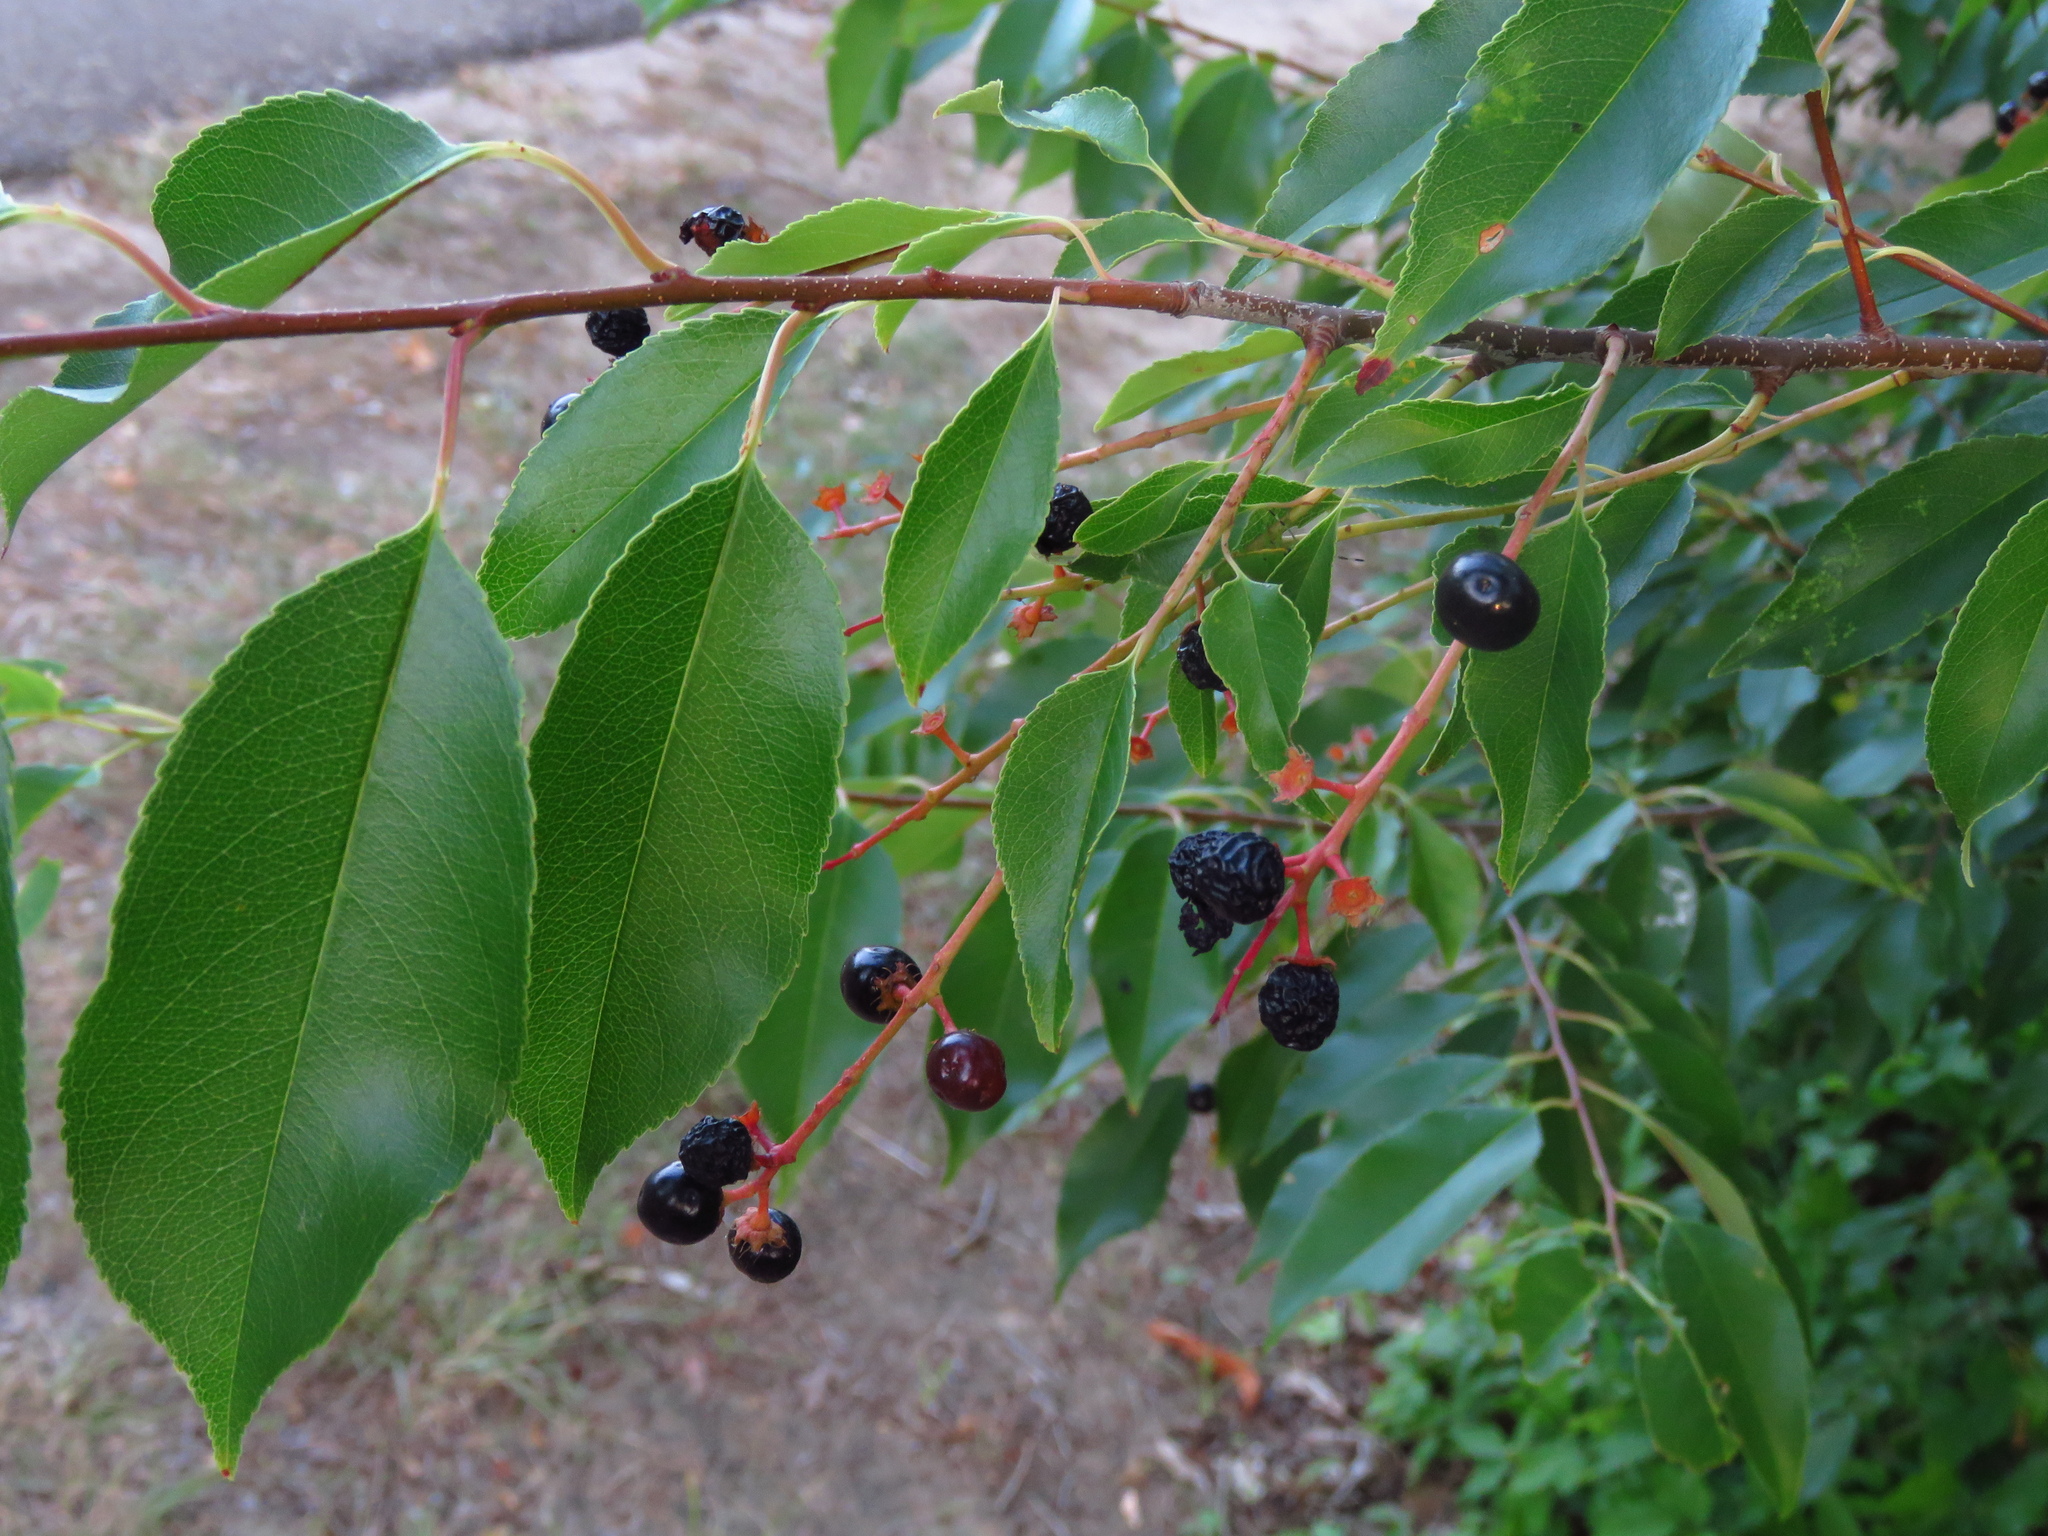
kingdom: Plantae
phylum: Tracheophyta
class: Magnoliopsida
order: Rosales
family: Rosaceae
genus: Prunus
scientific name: Prunus serotina
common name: Black cherry
